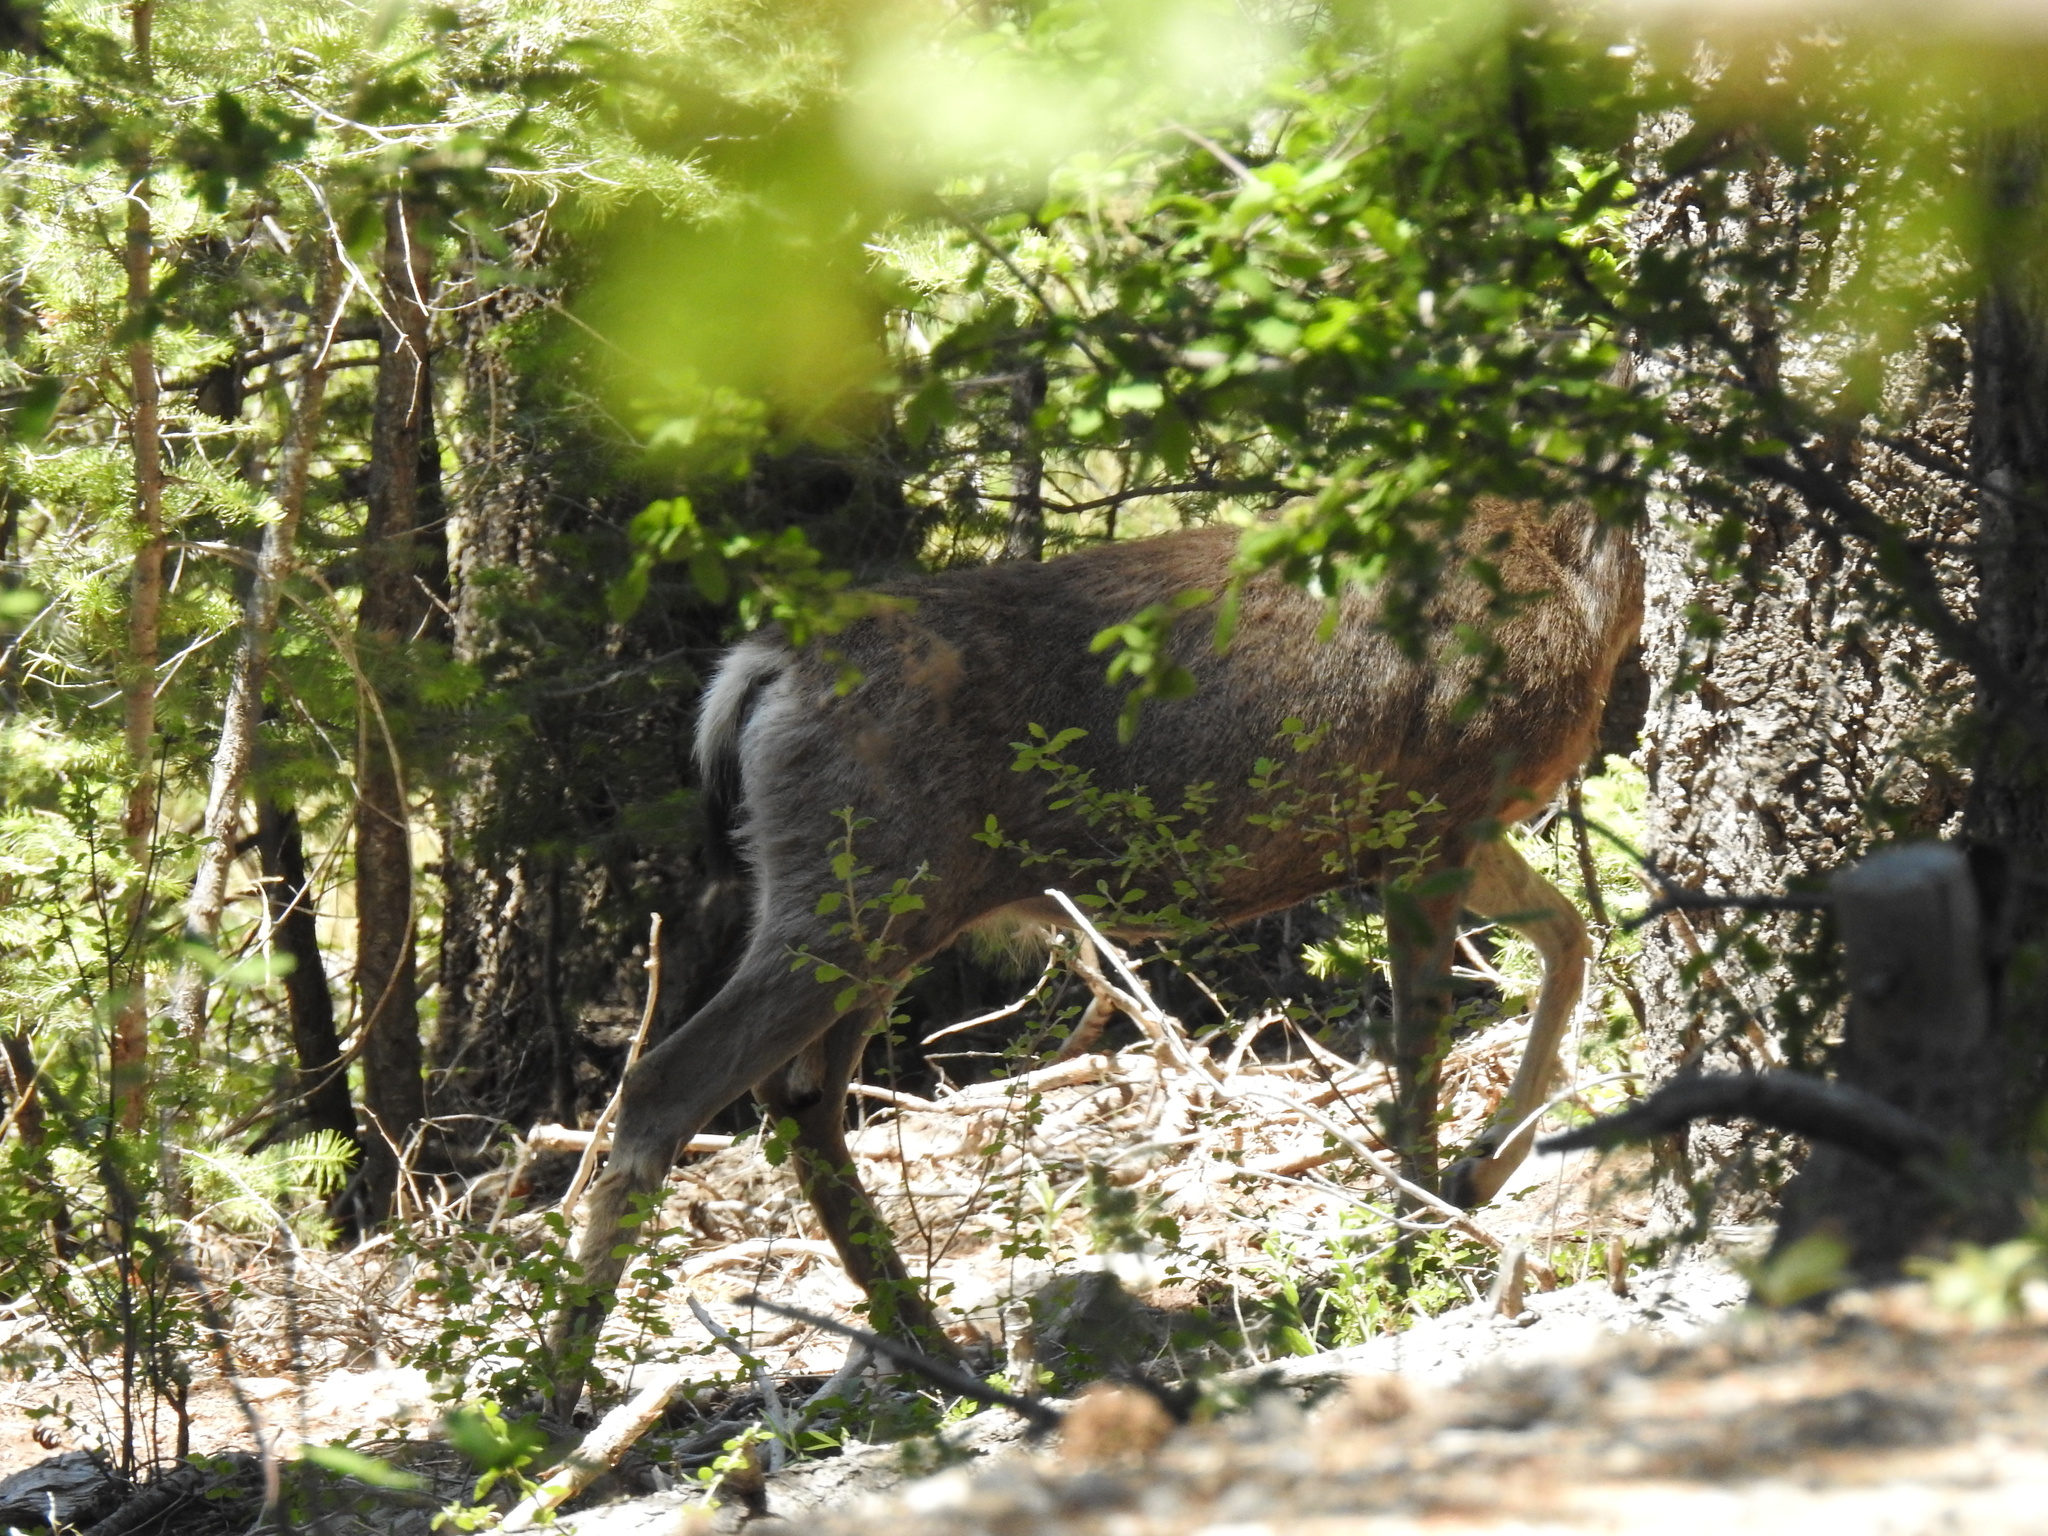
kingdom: Animalia
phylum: Chordata
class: Mammalia
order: Artiodactyla
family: Cervidae
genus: Odocoileus
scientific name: Odocoileus hemionus
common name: Mule deer
